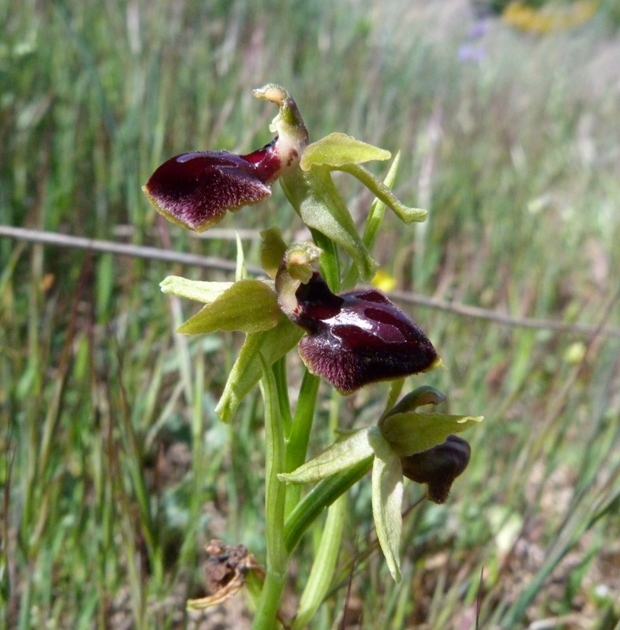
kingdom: Plantae
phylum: Tracheophyta
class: Liliopsida
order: Asparagales
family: Orchidaceae
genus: Ophrys
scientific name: Ophrys sphegodes
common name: Early spider-orchid
